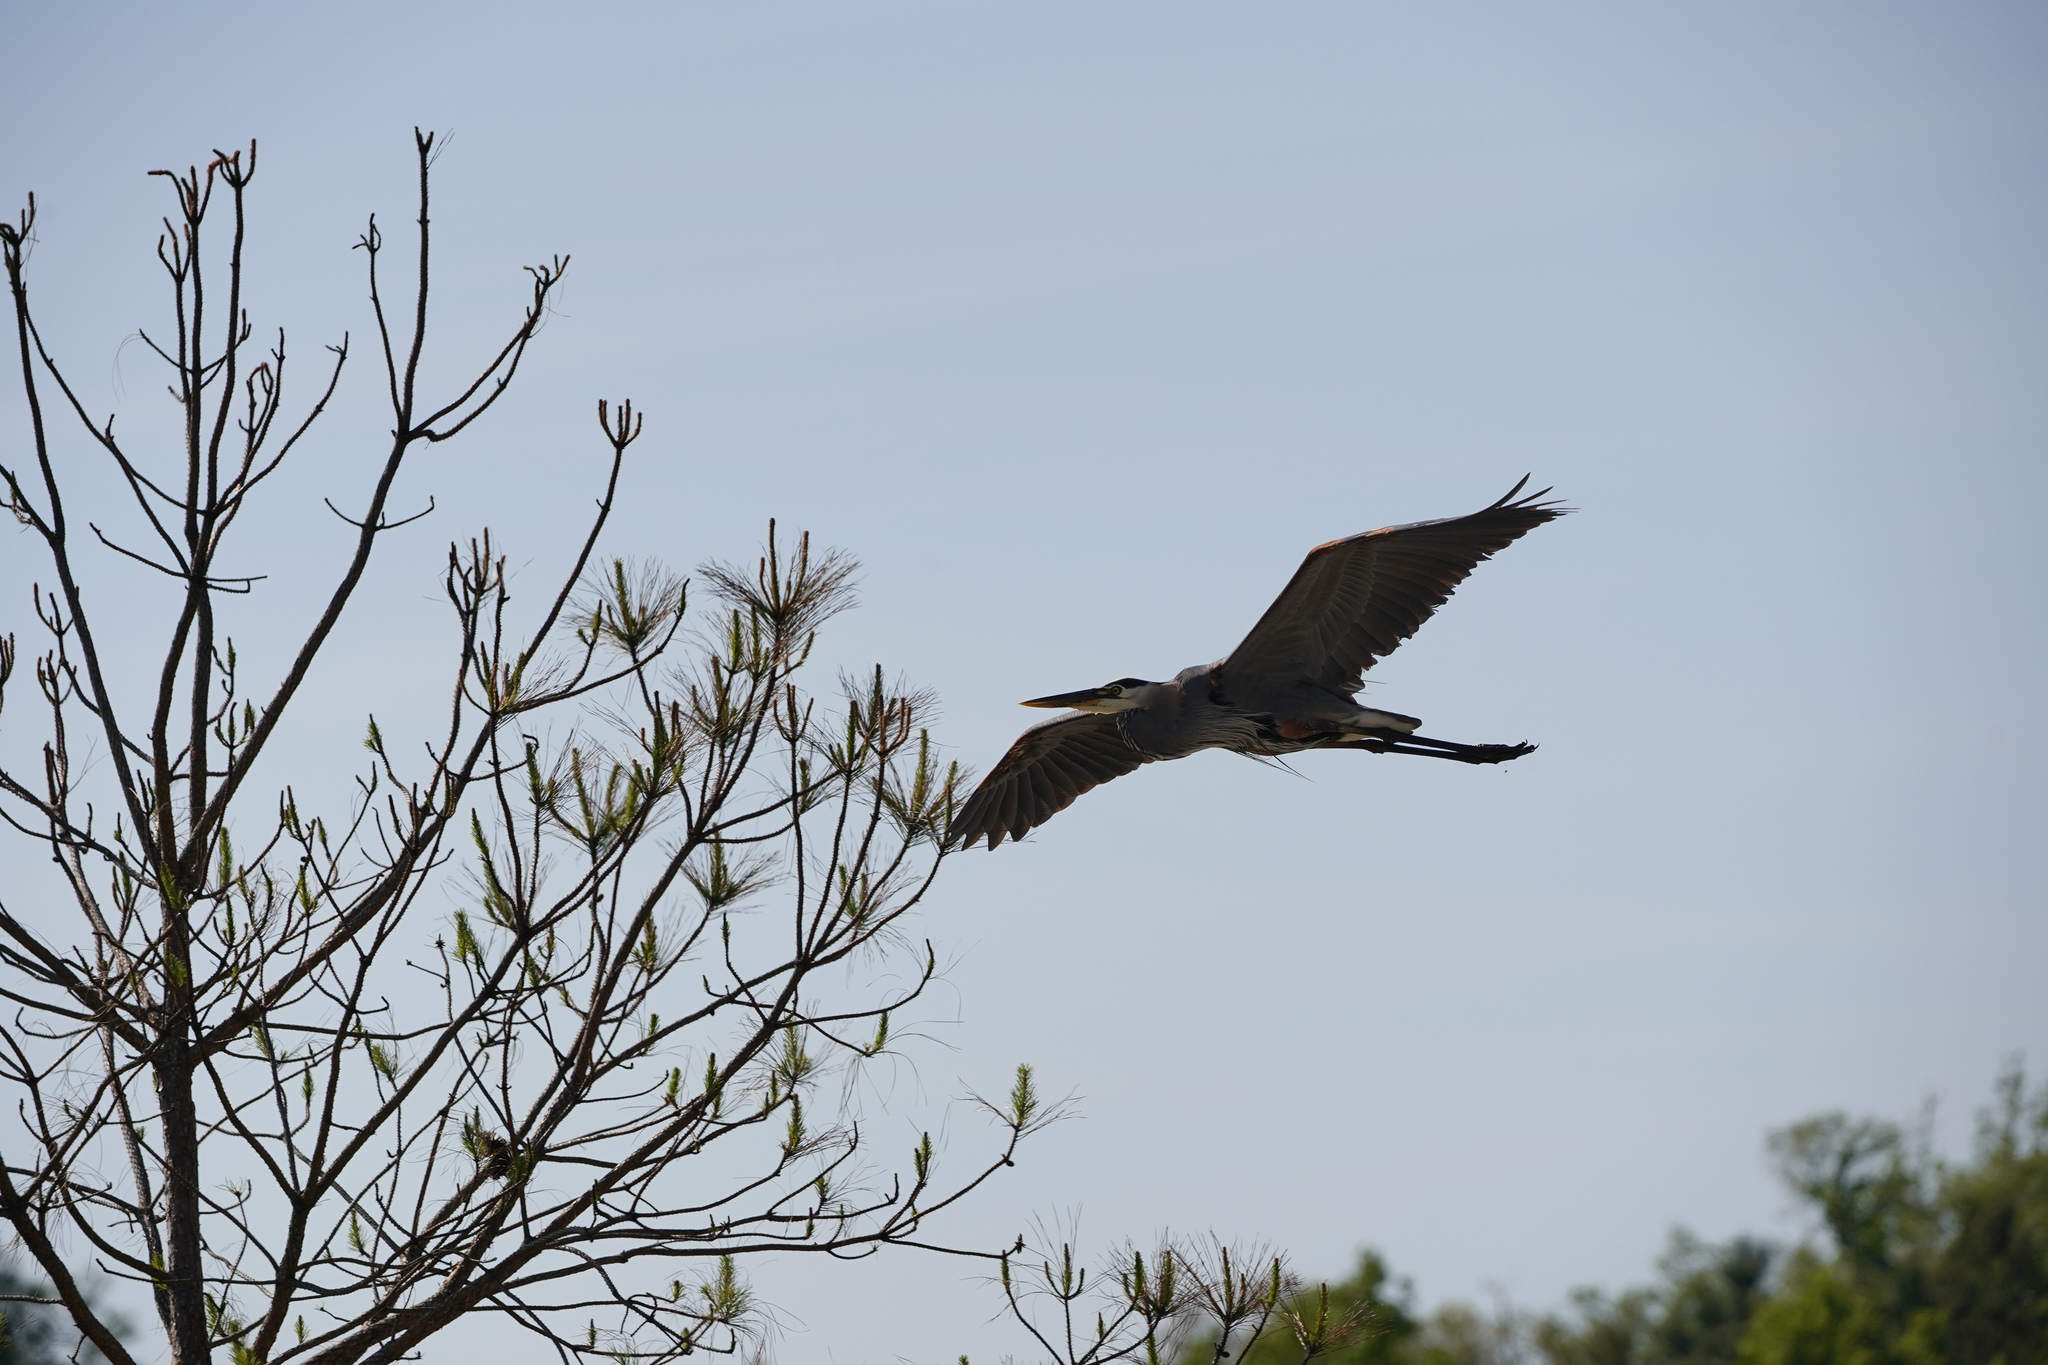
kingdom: Animalia
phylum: Chordata
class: Aves
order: Pelecaniformes
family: Ardeidae
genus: Ardea
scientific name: Ardea herodias
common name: Great blue heron
